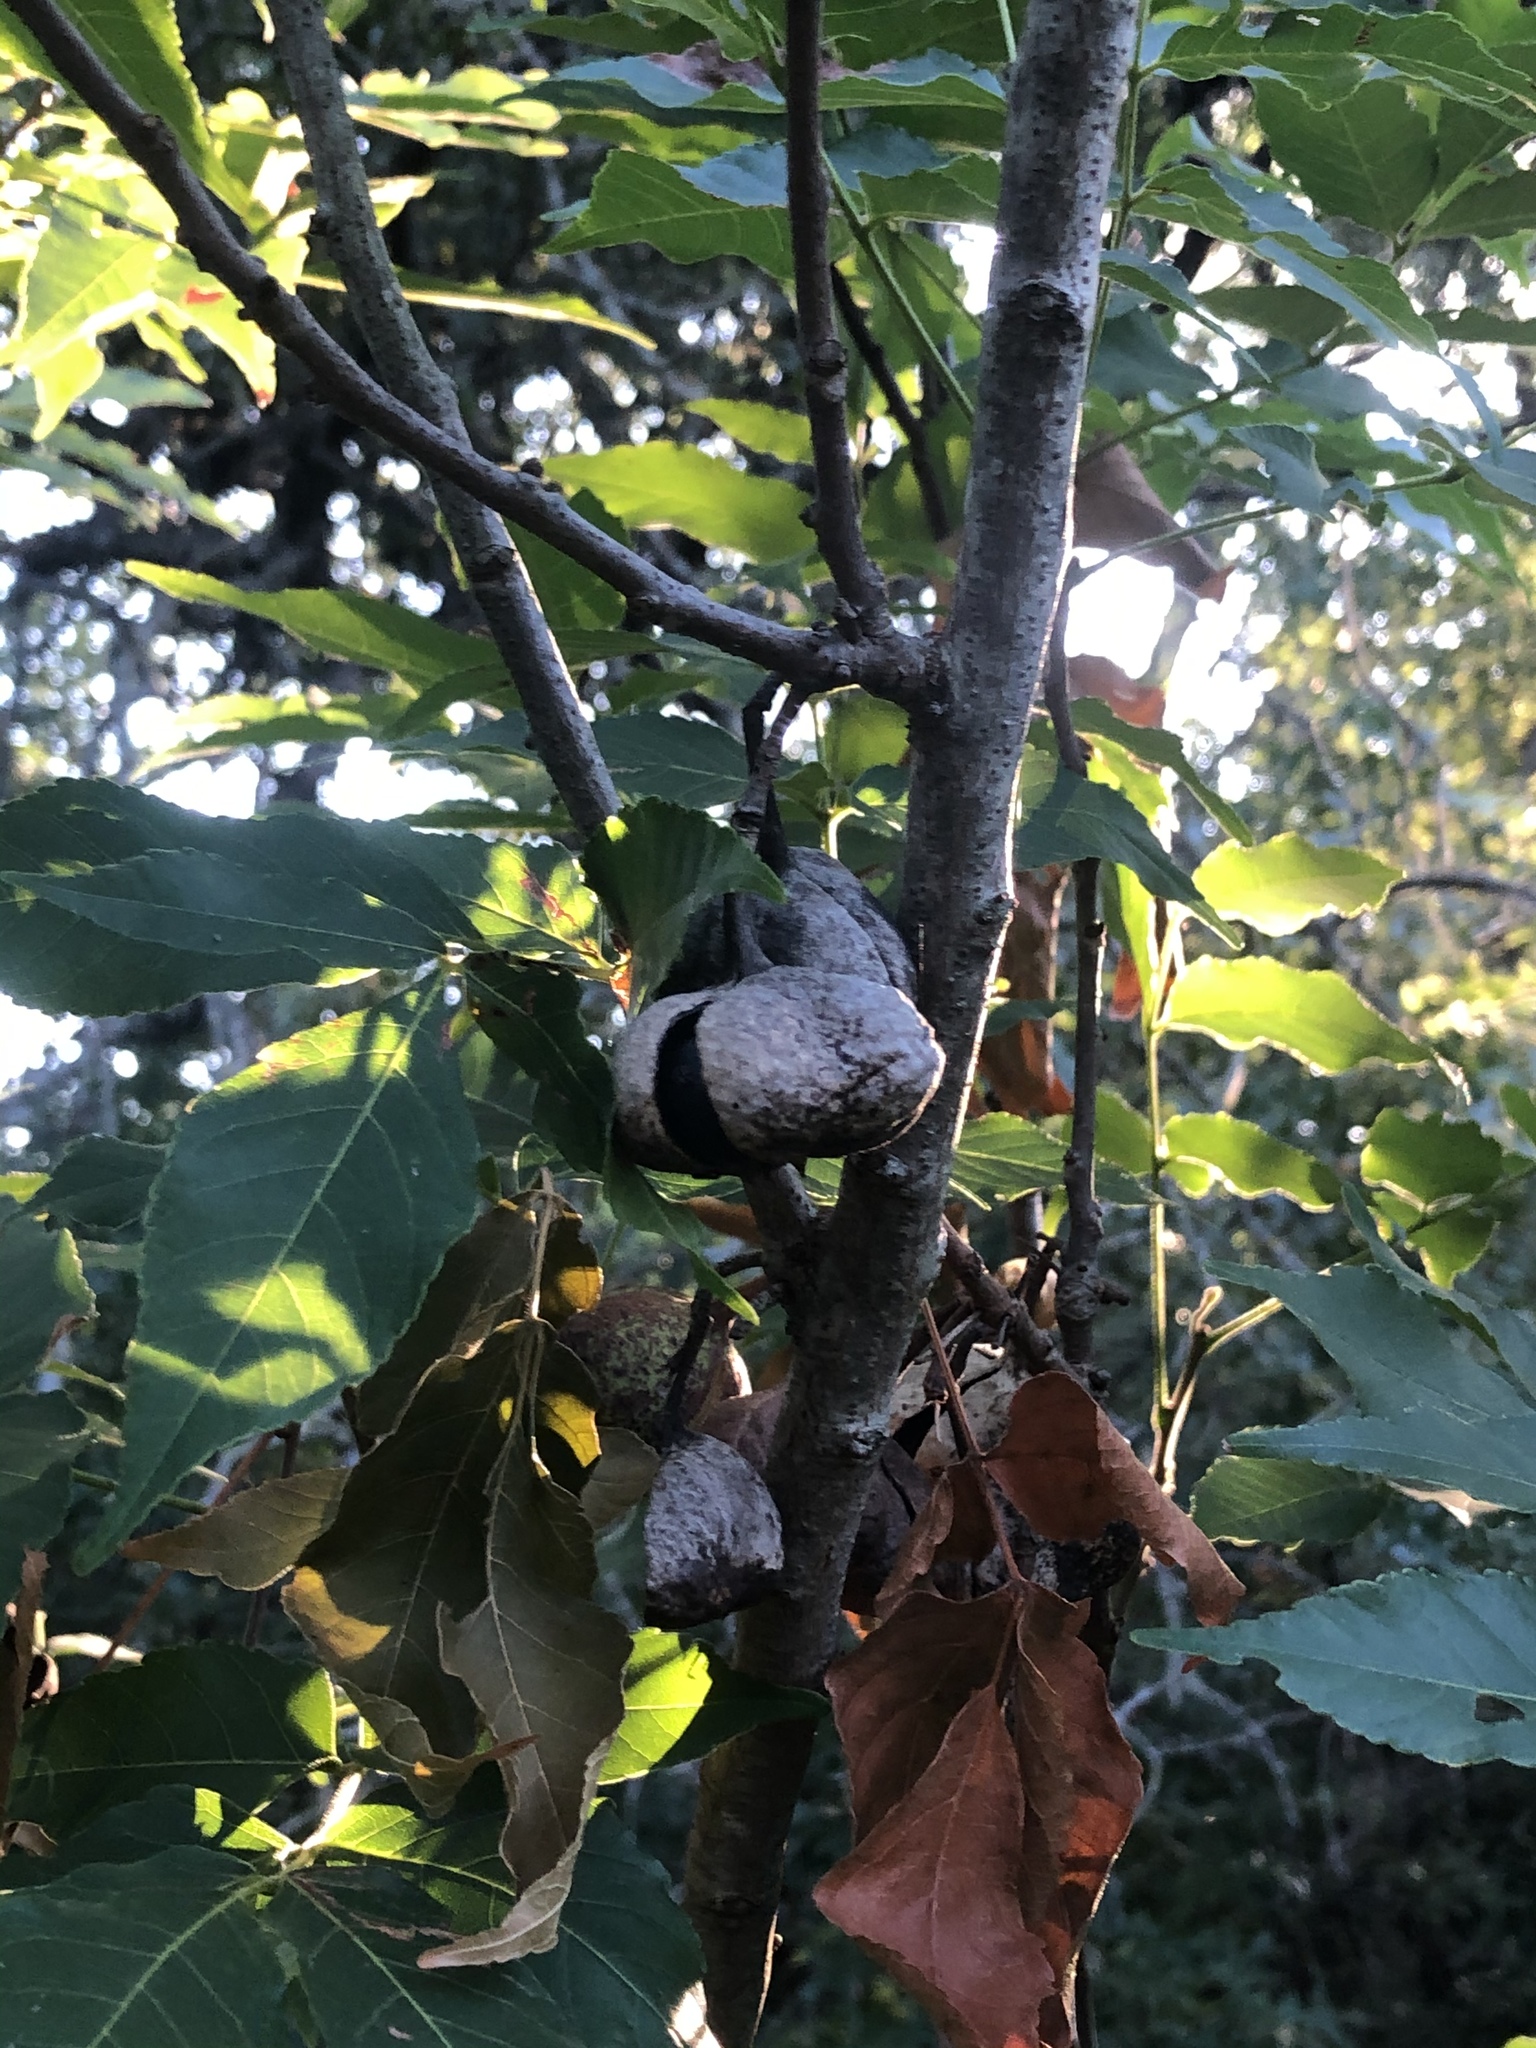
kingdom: Plantae
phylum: Tracheophyta
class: Magnoliopsida
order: Sapindales
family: Sapindaceae
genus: Ungnadia
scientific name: Ungnadia speciosa
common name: Texas-buckeye
